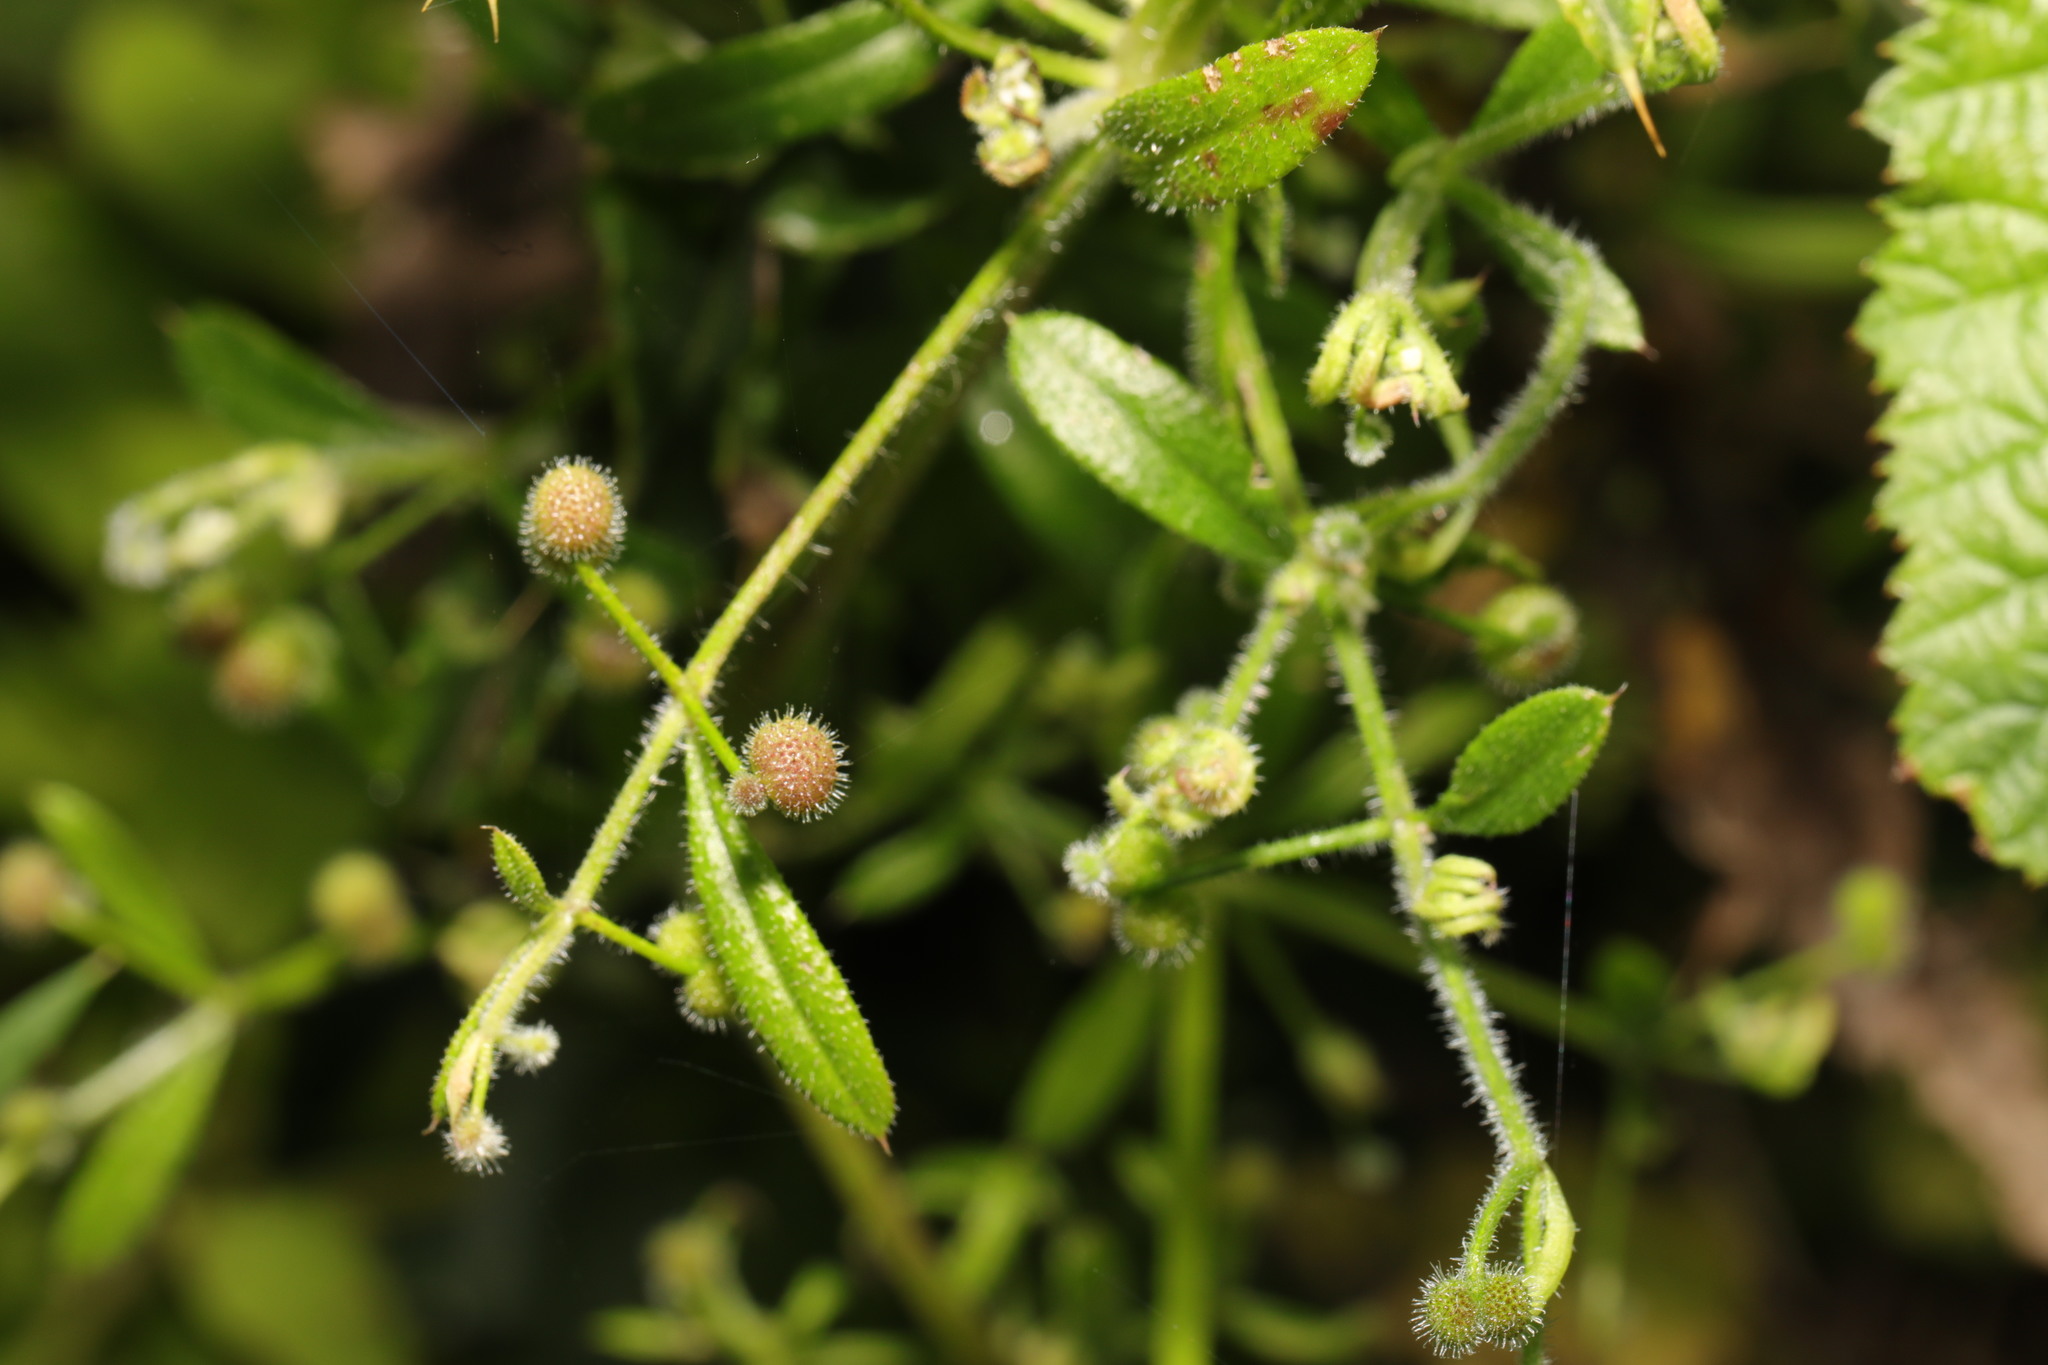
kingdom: Plantae
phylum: Tracheophyta
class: Magnoliopsida
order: Gentianales
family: Rubiaceae
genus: Galium
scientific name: Galium aparine
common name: Cleavers
